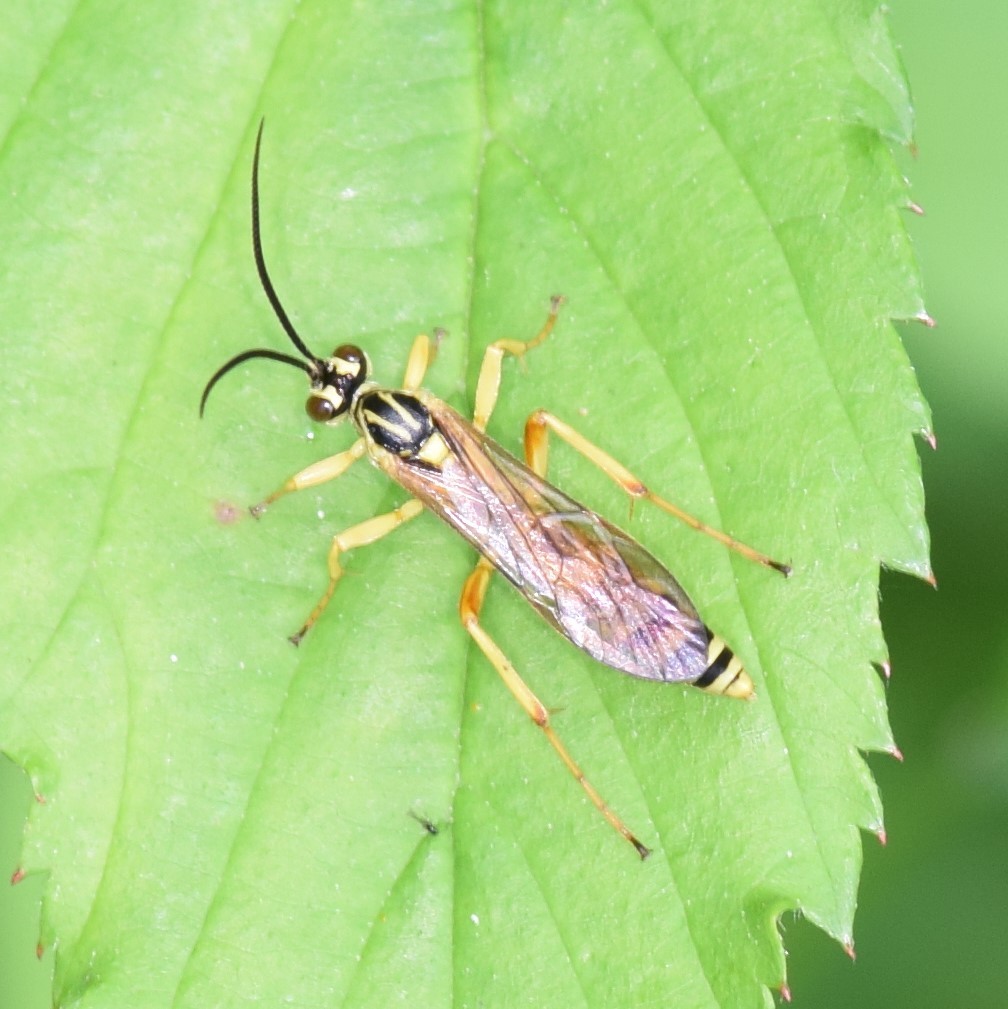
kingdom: Animalia
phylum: Arthropoda
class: Insecta
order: Hymenoptera
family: Ichneumonidae
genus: Setanta
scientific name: Setanta compta
